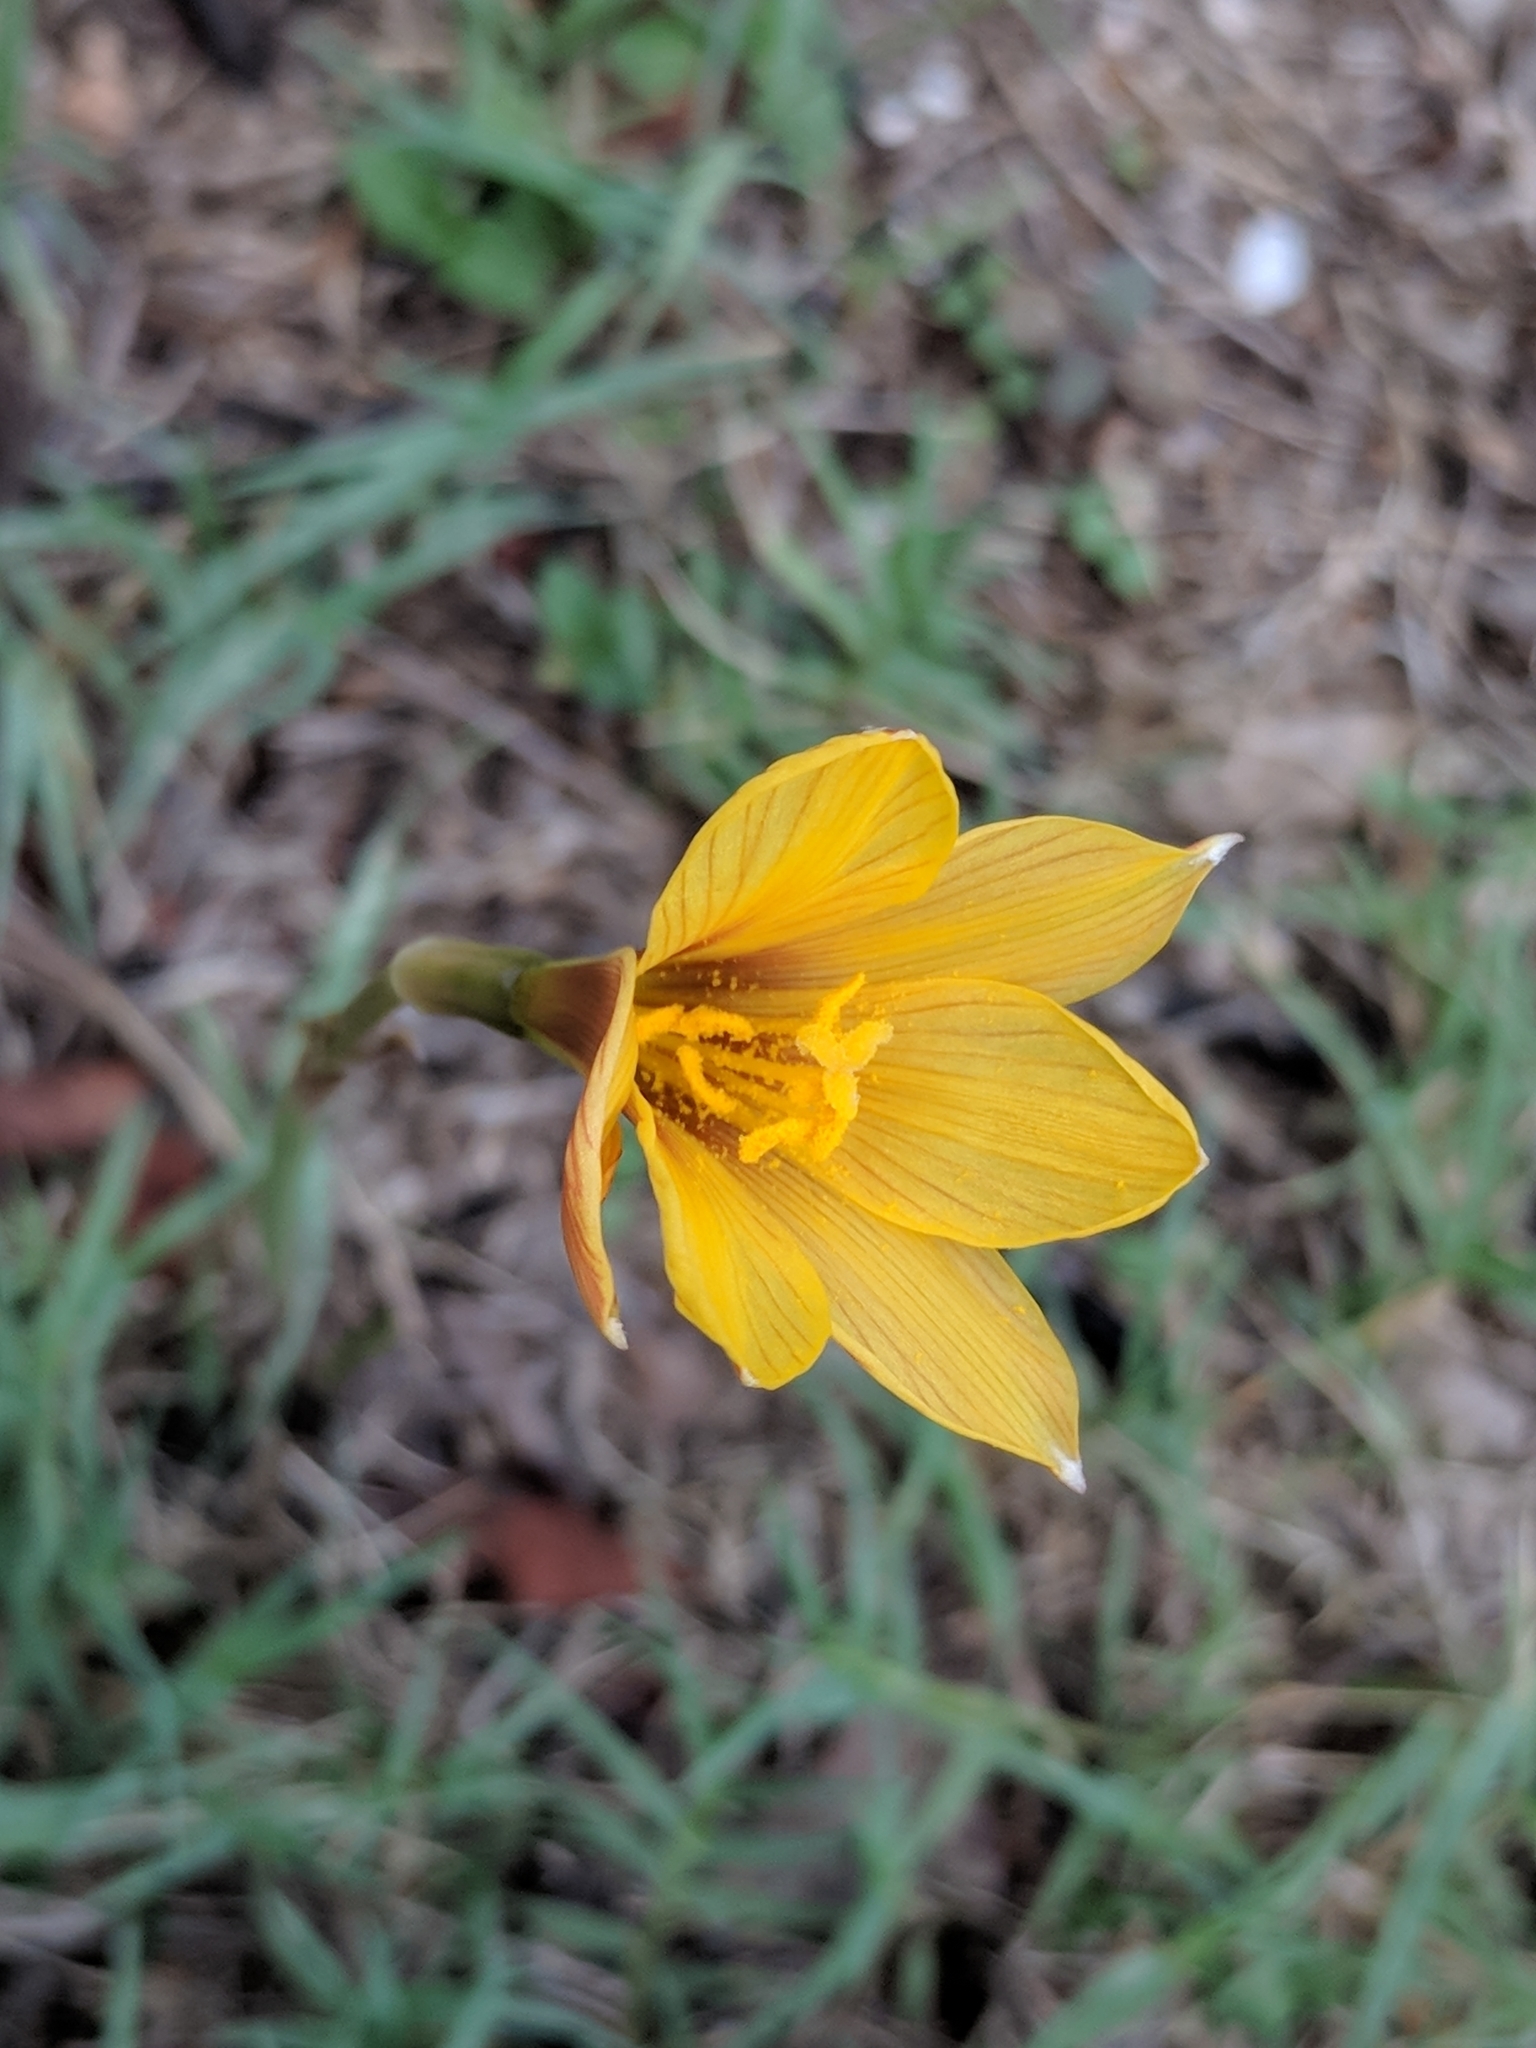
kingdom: Plantae
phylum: Tracheophyta
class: Liliopsida
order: Asparagales
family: Amaryllidaceae
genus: Zephyranthes
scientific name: Zephyranthes tubispatha
